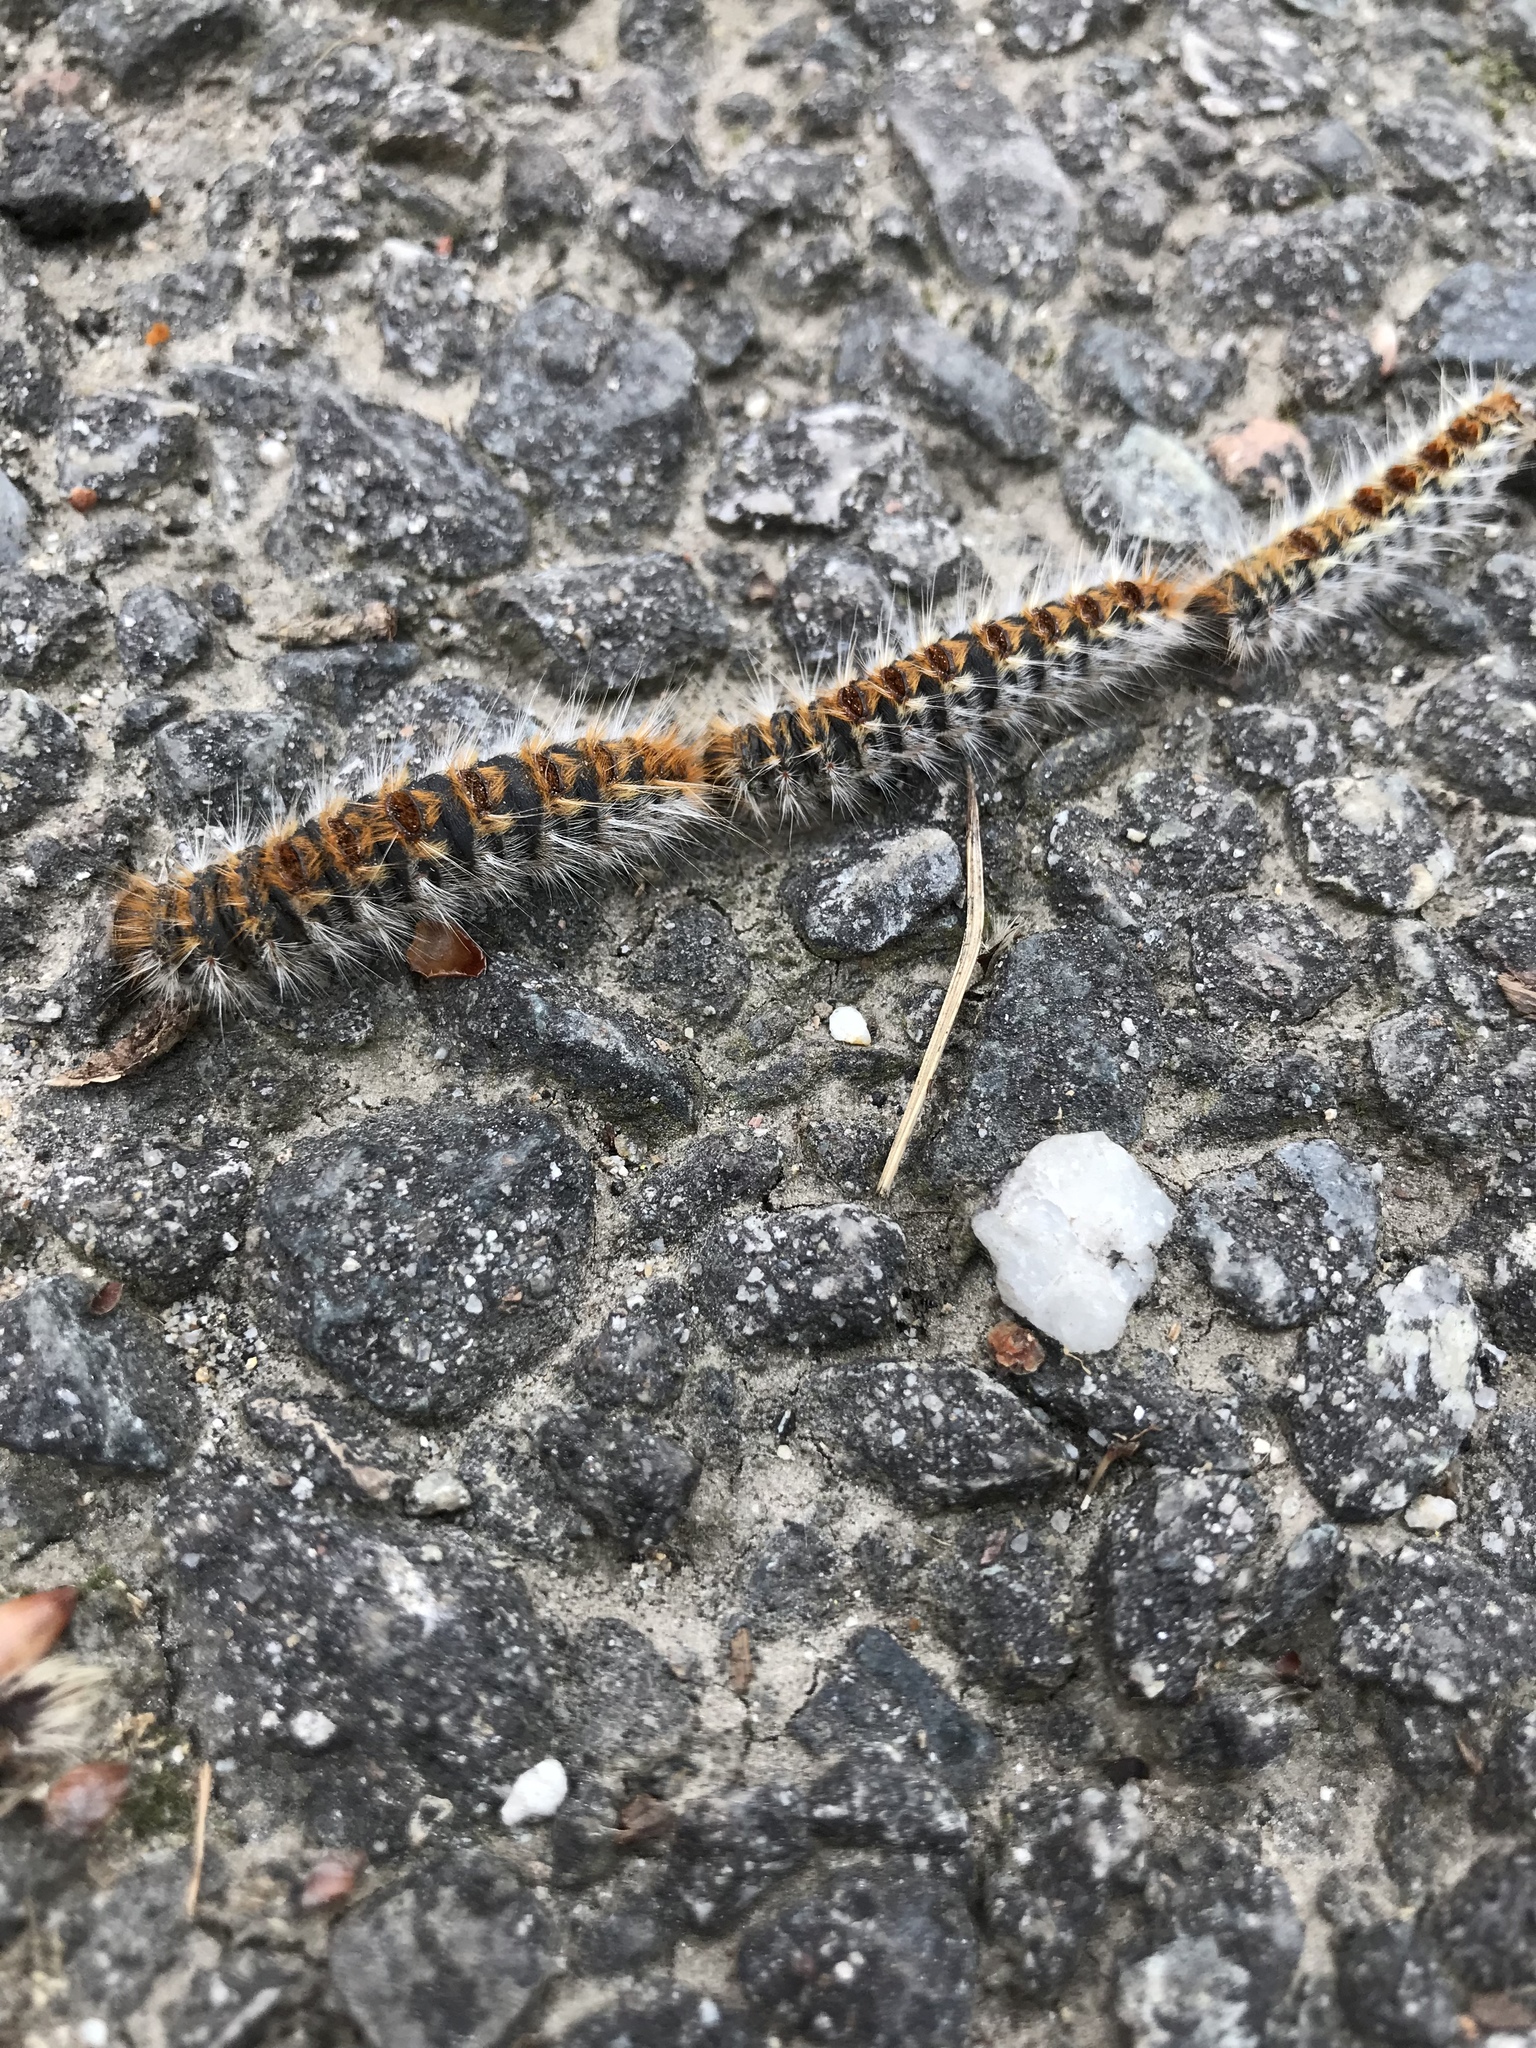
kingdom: Animalia
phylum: Arthropoda
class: Insecta
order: Lepidoptera
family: Notodontidae
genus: Thaumetopoea
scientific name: Thaumetopoea pityocampa
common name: Pine processionary
